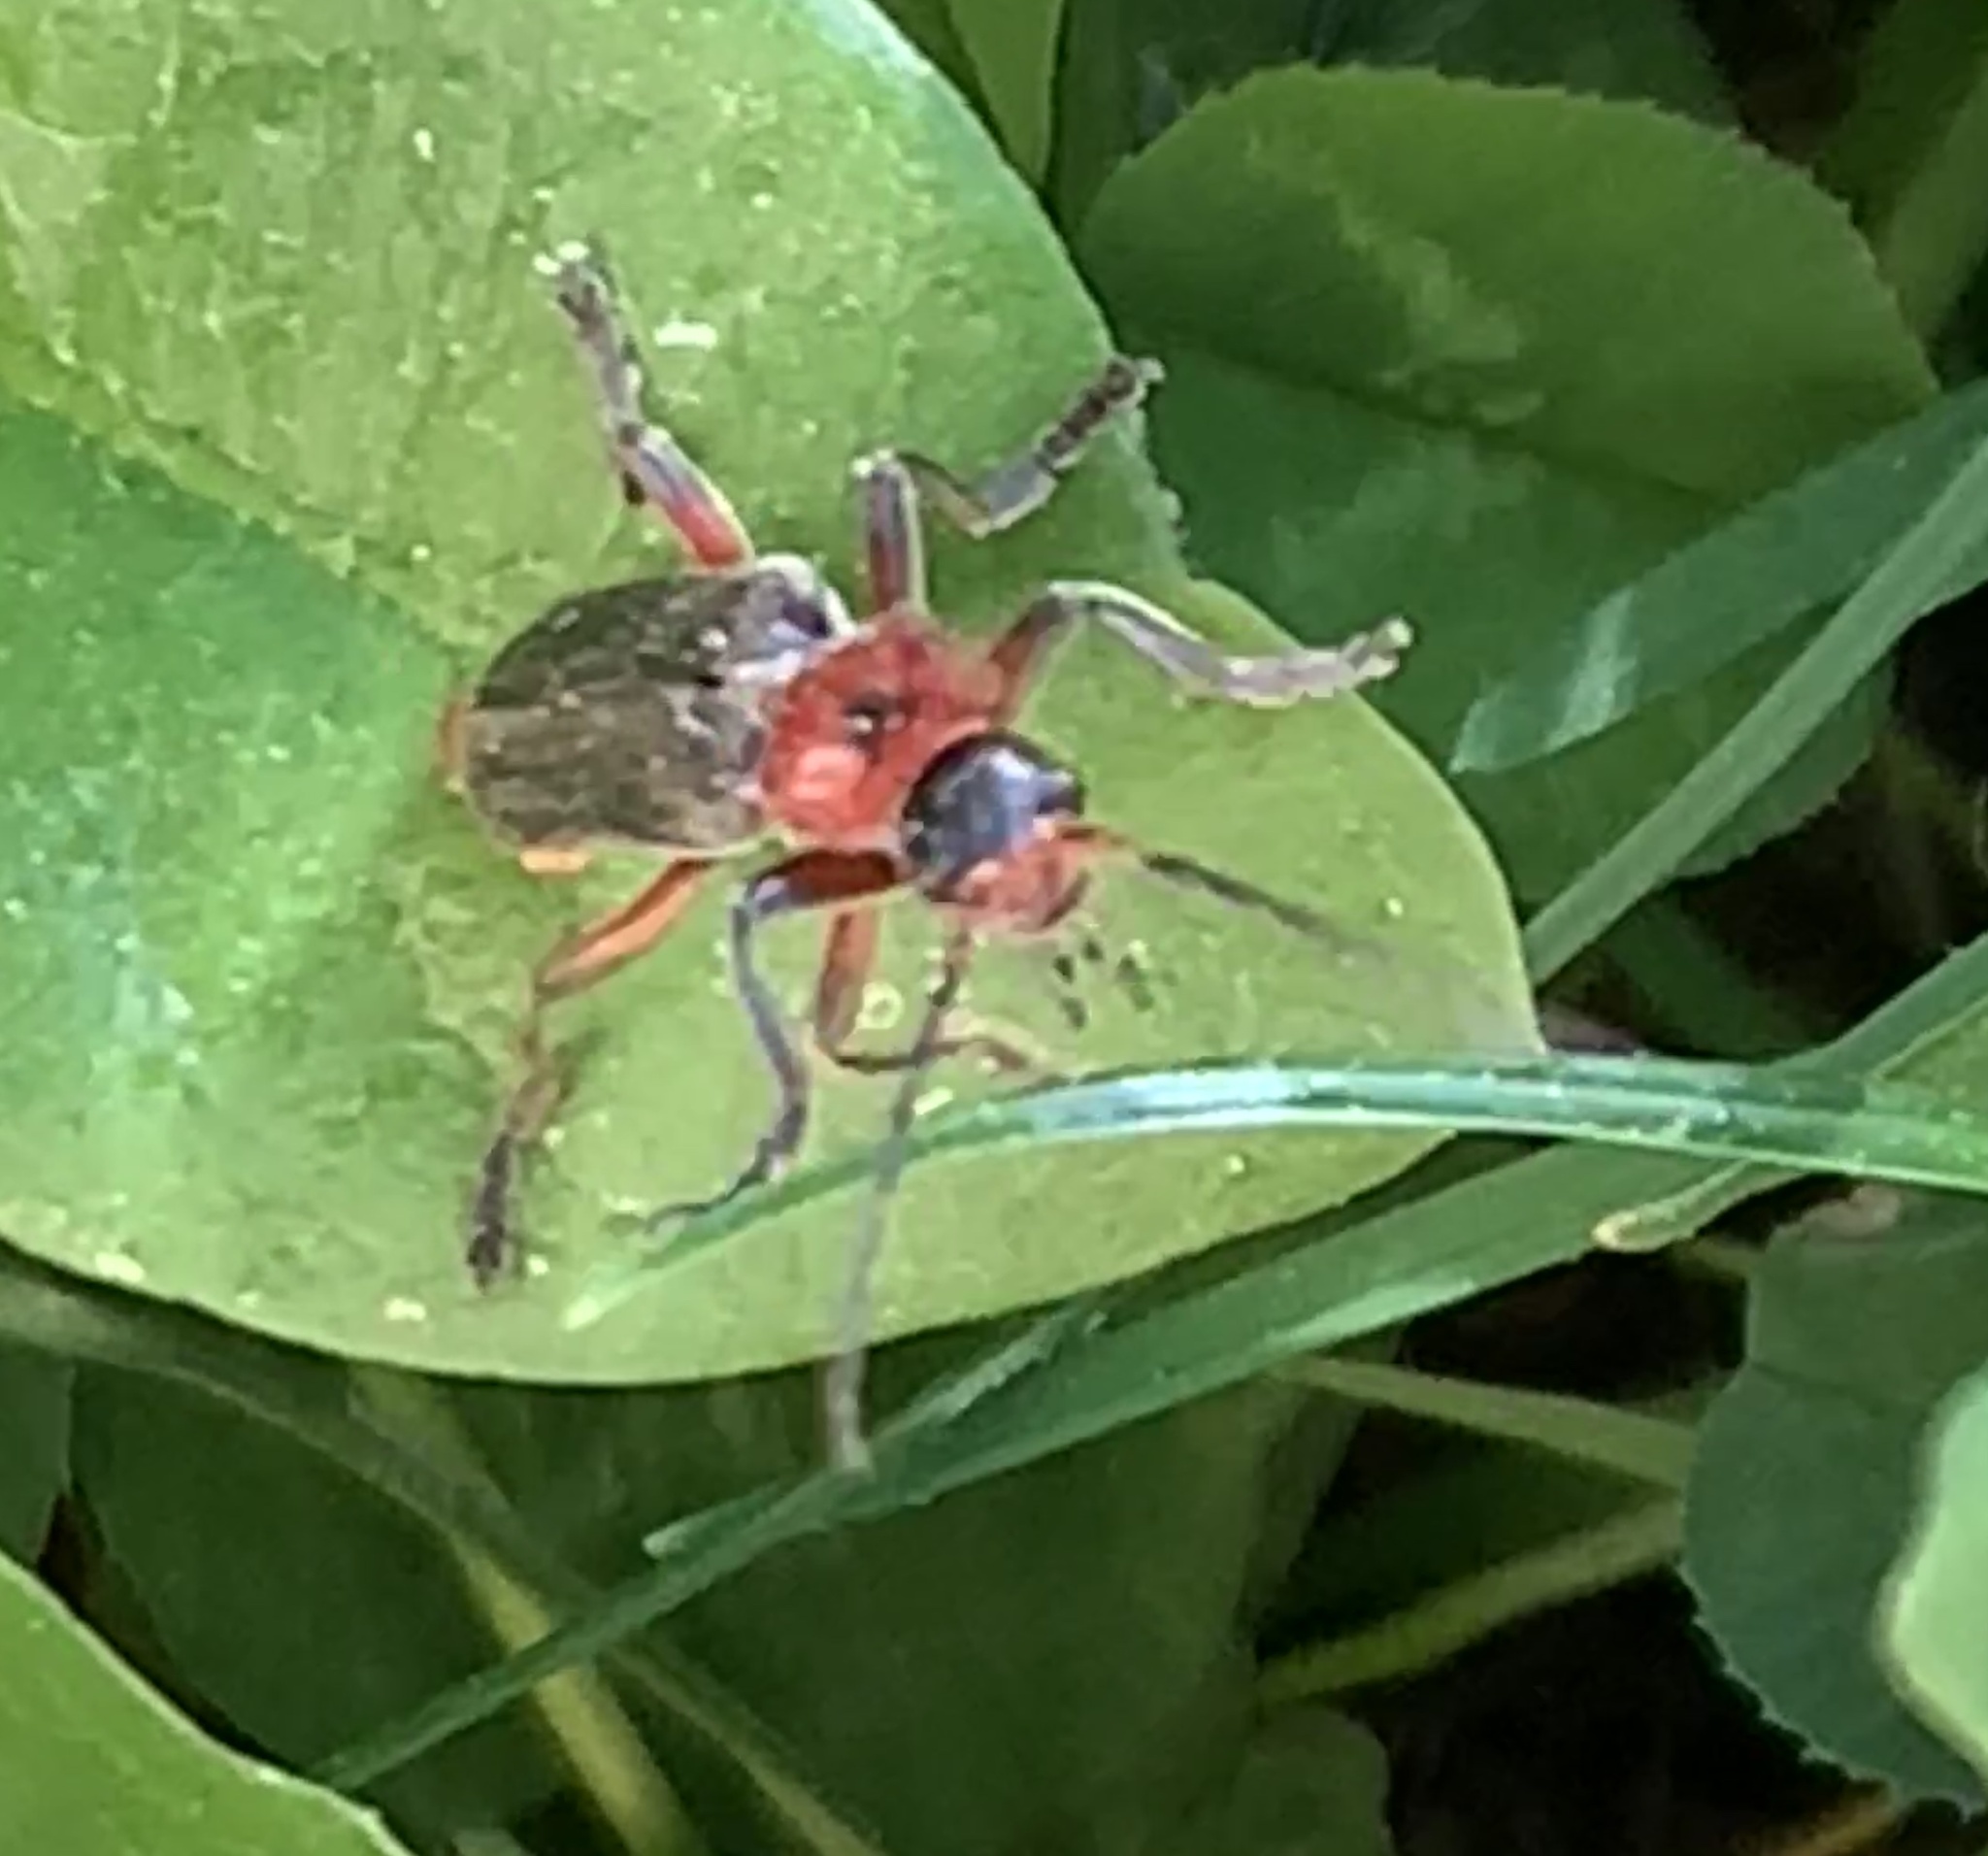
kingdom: Animalia
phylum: Arthropoda
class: Insecta
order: Coleoptera
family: Cantharidae
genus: Cantharis
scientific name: Cantharis rustica
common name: Soldier beetle
